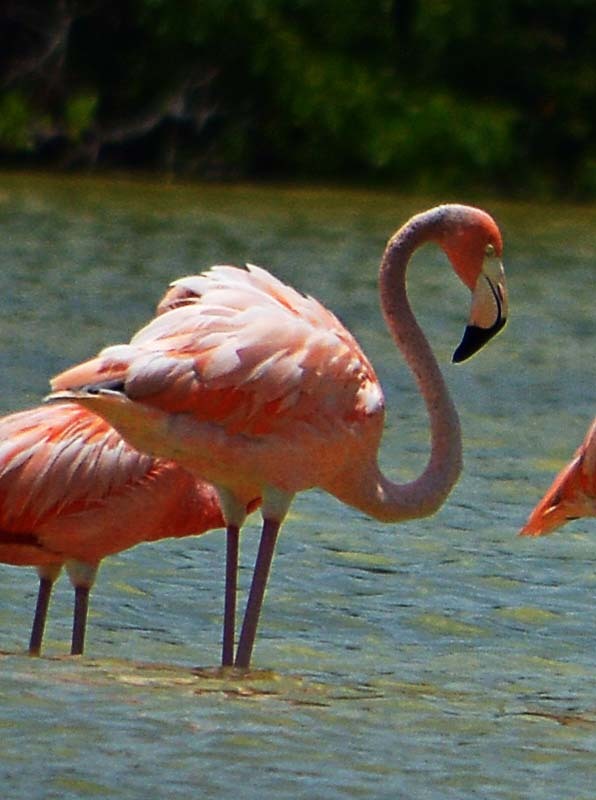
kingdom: Animalia
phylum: Chordata
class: Aves
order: Phoenicopteriformes
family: Phoenicopteridae
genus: Phoenicopterus
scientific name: Phoenicopterus ruber
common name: American flamingo
